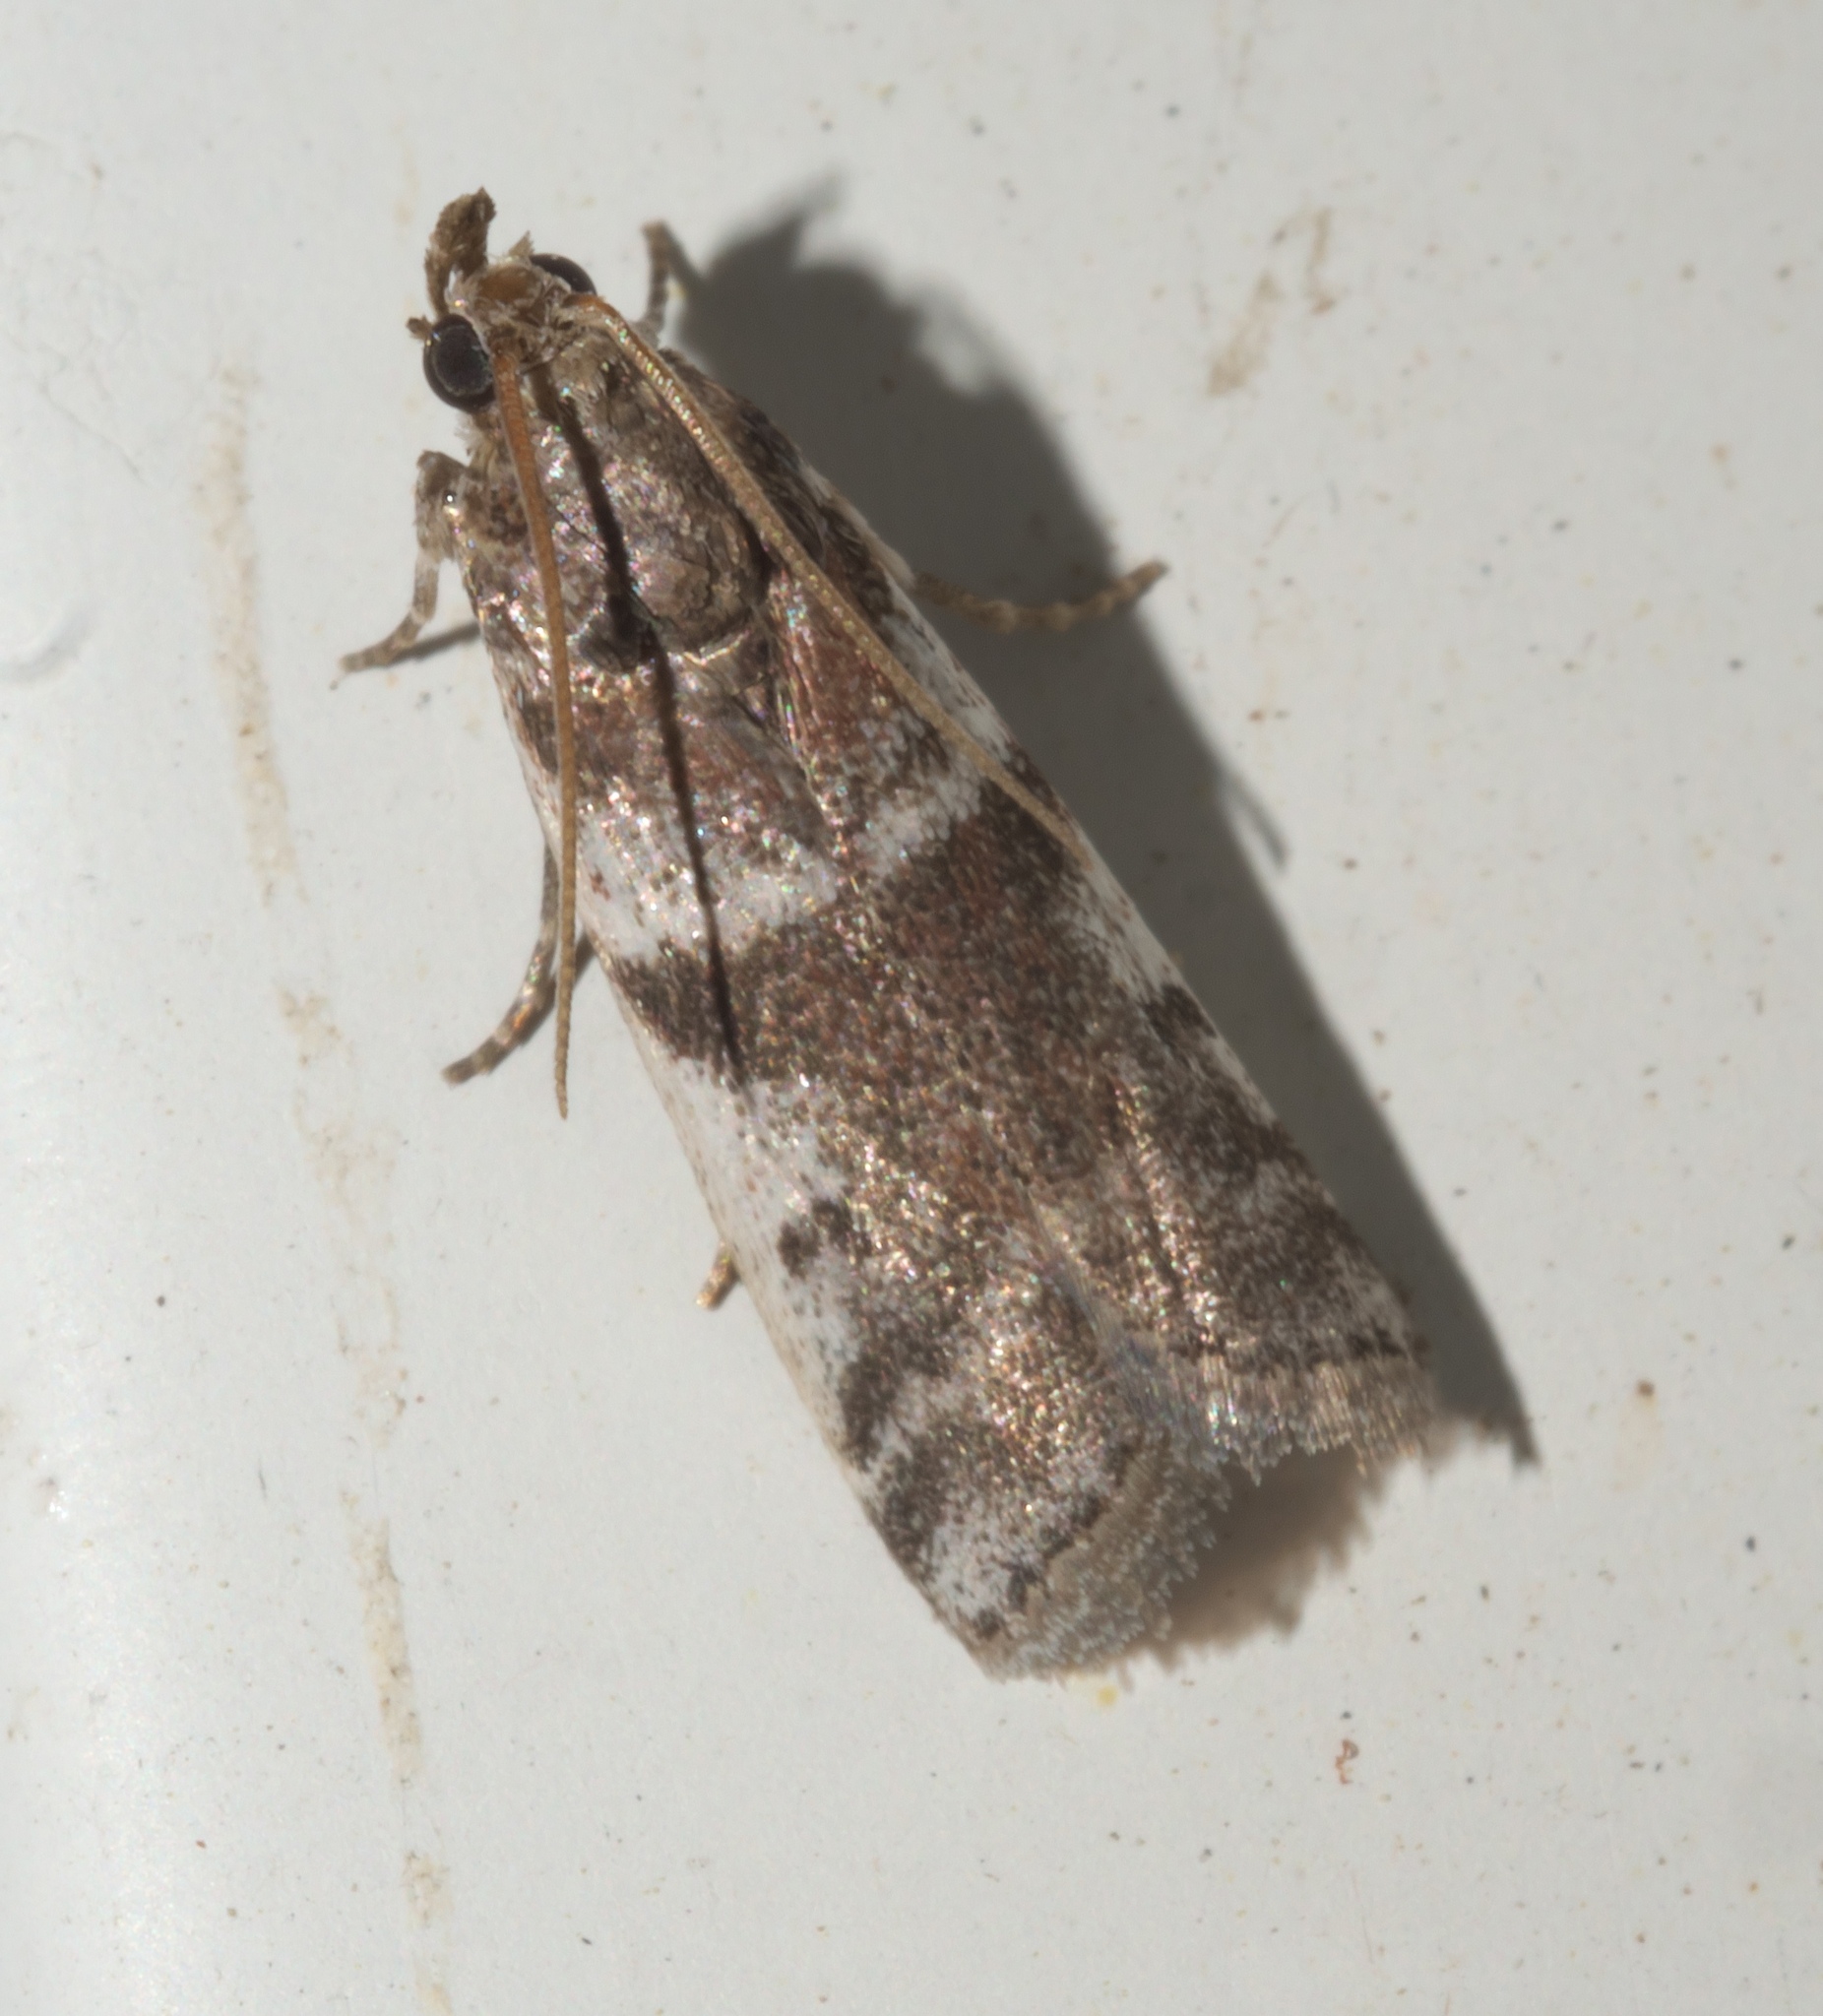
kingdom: Animalia
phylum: Arthropoda
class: Insecta
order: Lepidoptera
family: Pyralidae
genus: Laetilia
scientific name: Laetilia coccidivora
